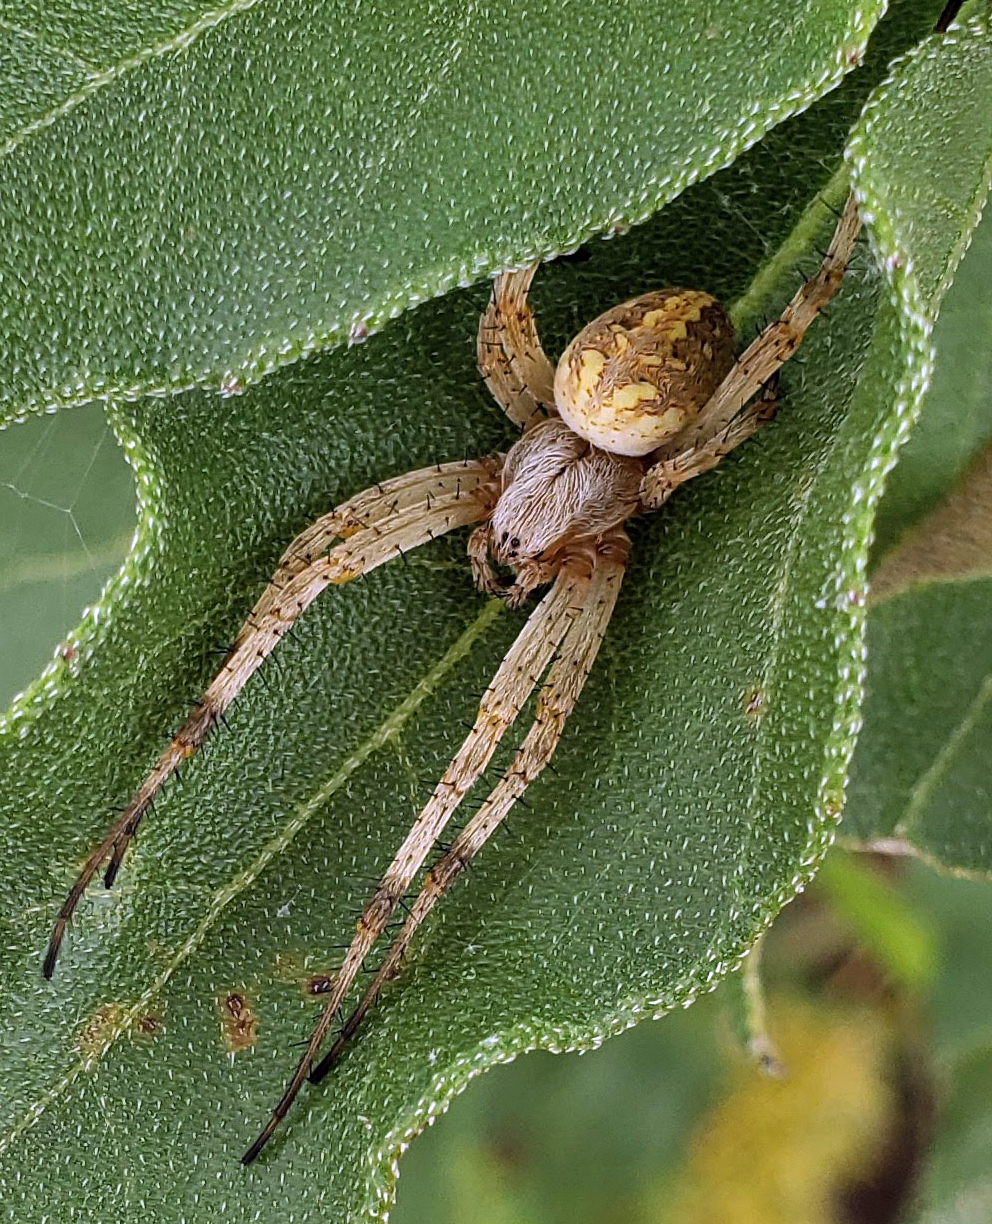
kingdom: Animalia
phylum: Arthropoda
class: Arachnida
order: Araneae
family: Araneidae
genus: Neoscona
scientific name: Neoscona oaxacensis
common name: Orb weavers
